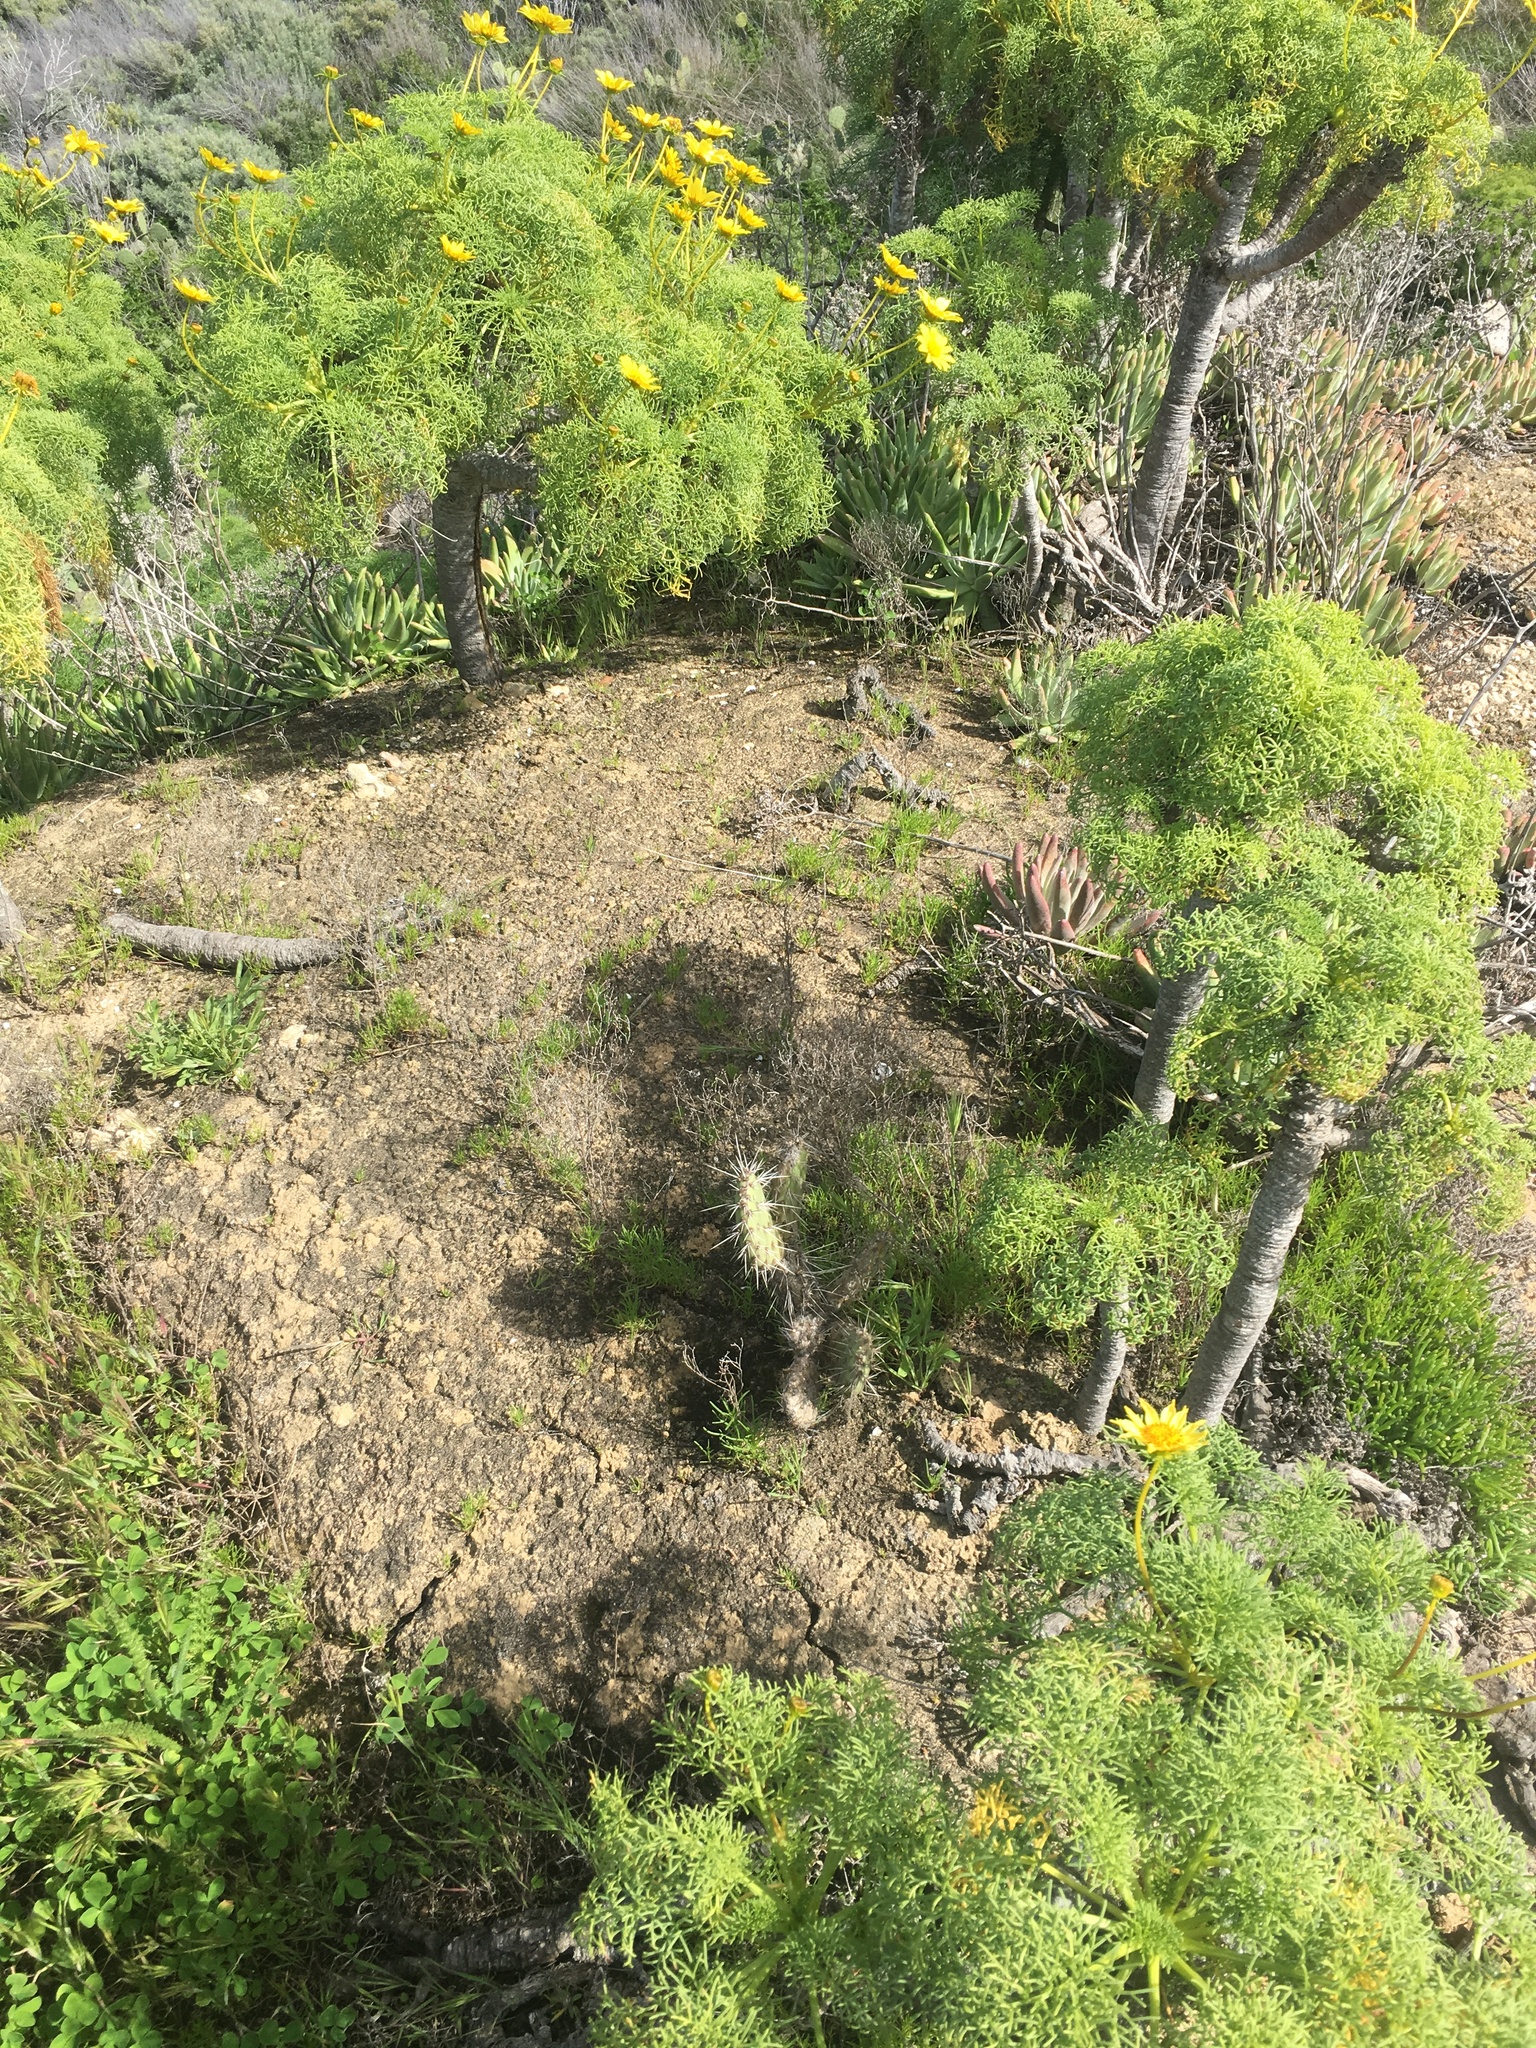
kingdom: Plantae
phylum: Tracheophyta
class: Magnoliopsida
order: Saxifragales
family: Crassulaceae
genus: Dudleya
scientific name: Dudleya virens
